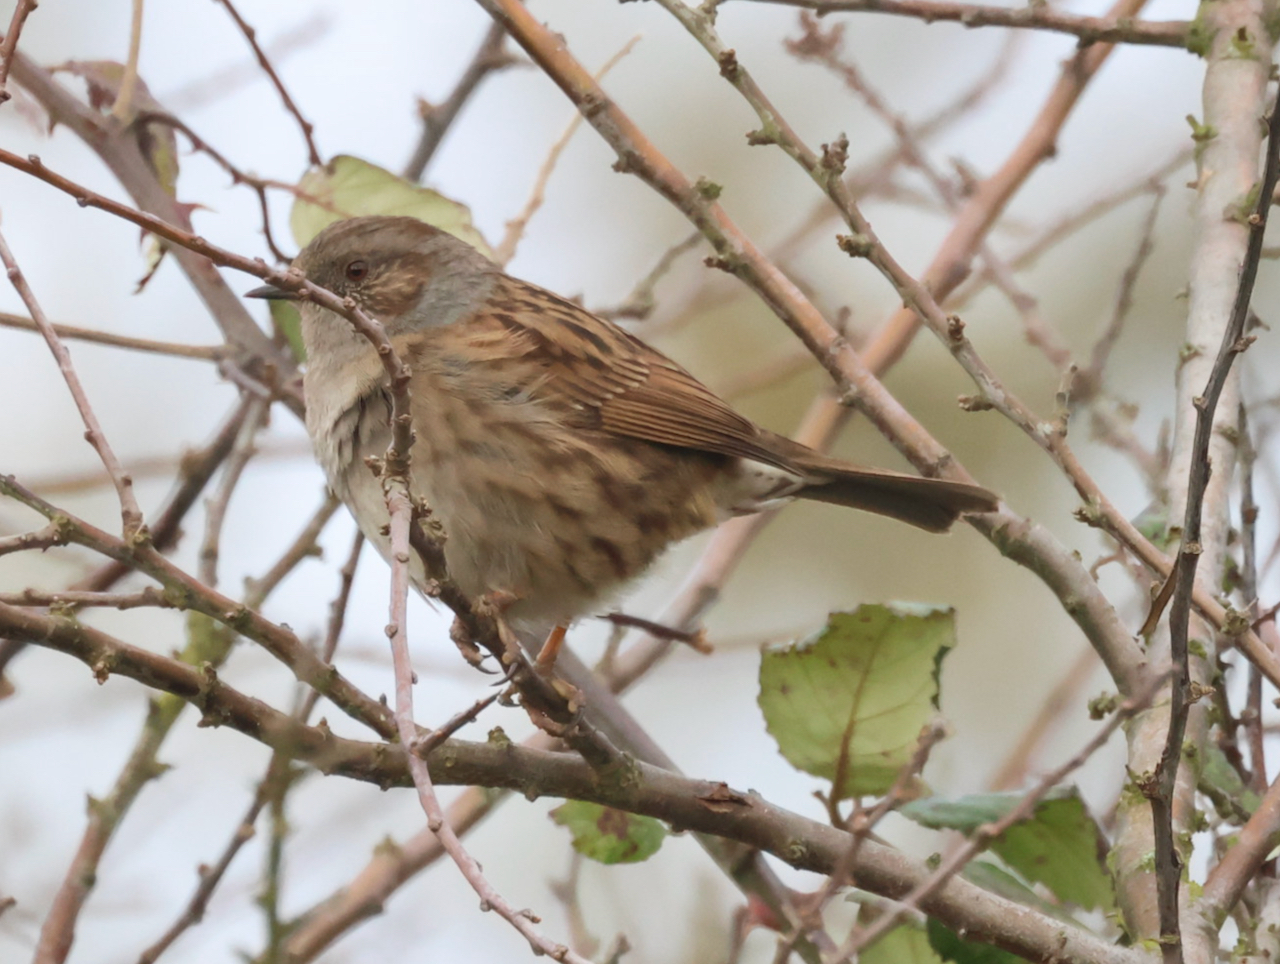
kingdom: Animalia
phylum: Chordata
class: Aves
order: Passeriformes
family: Prunellidae
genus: Prunella
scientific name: Prunella modularis
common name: Dunnock
